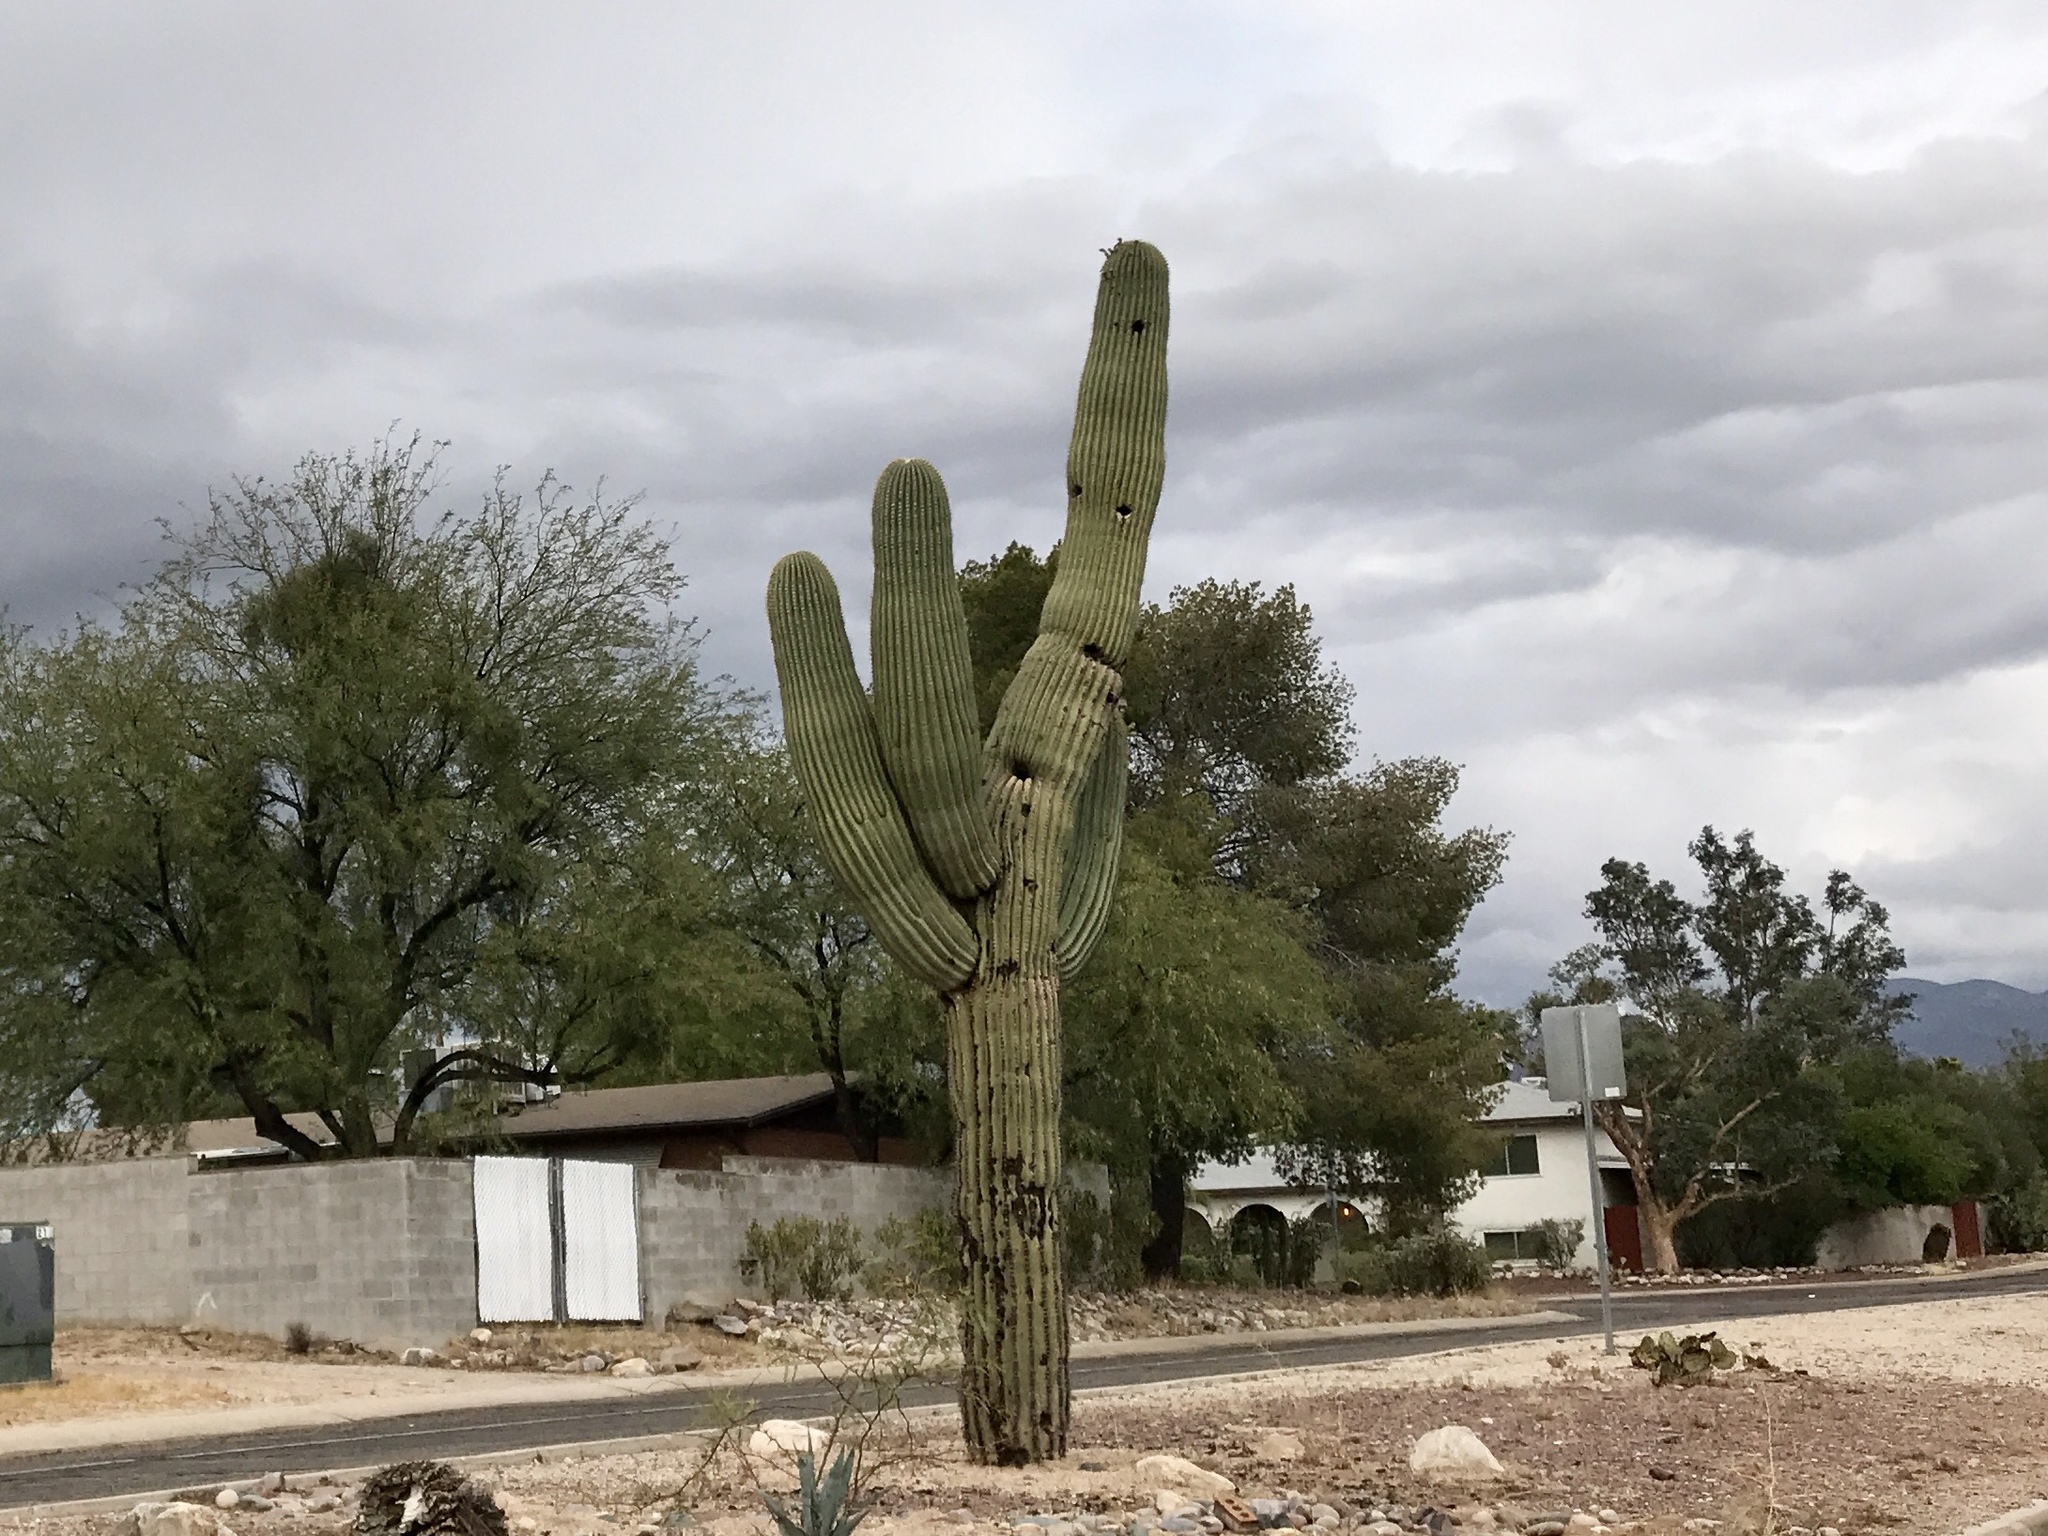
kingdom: Plantae
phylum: Tracheophyta
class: Magnoliopsida
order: Caryophyllales
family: Cactaceae
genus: Carnegiea
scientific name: Carnegiea gigantea
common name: Saguaro
